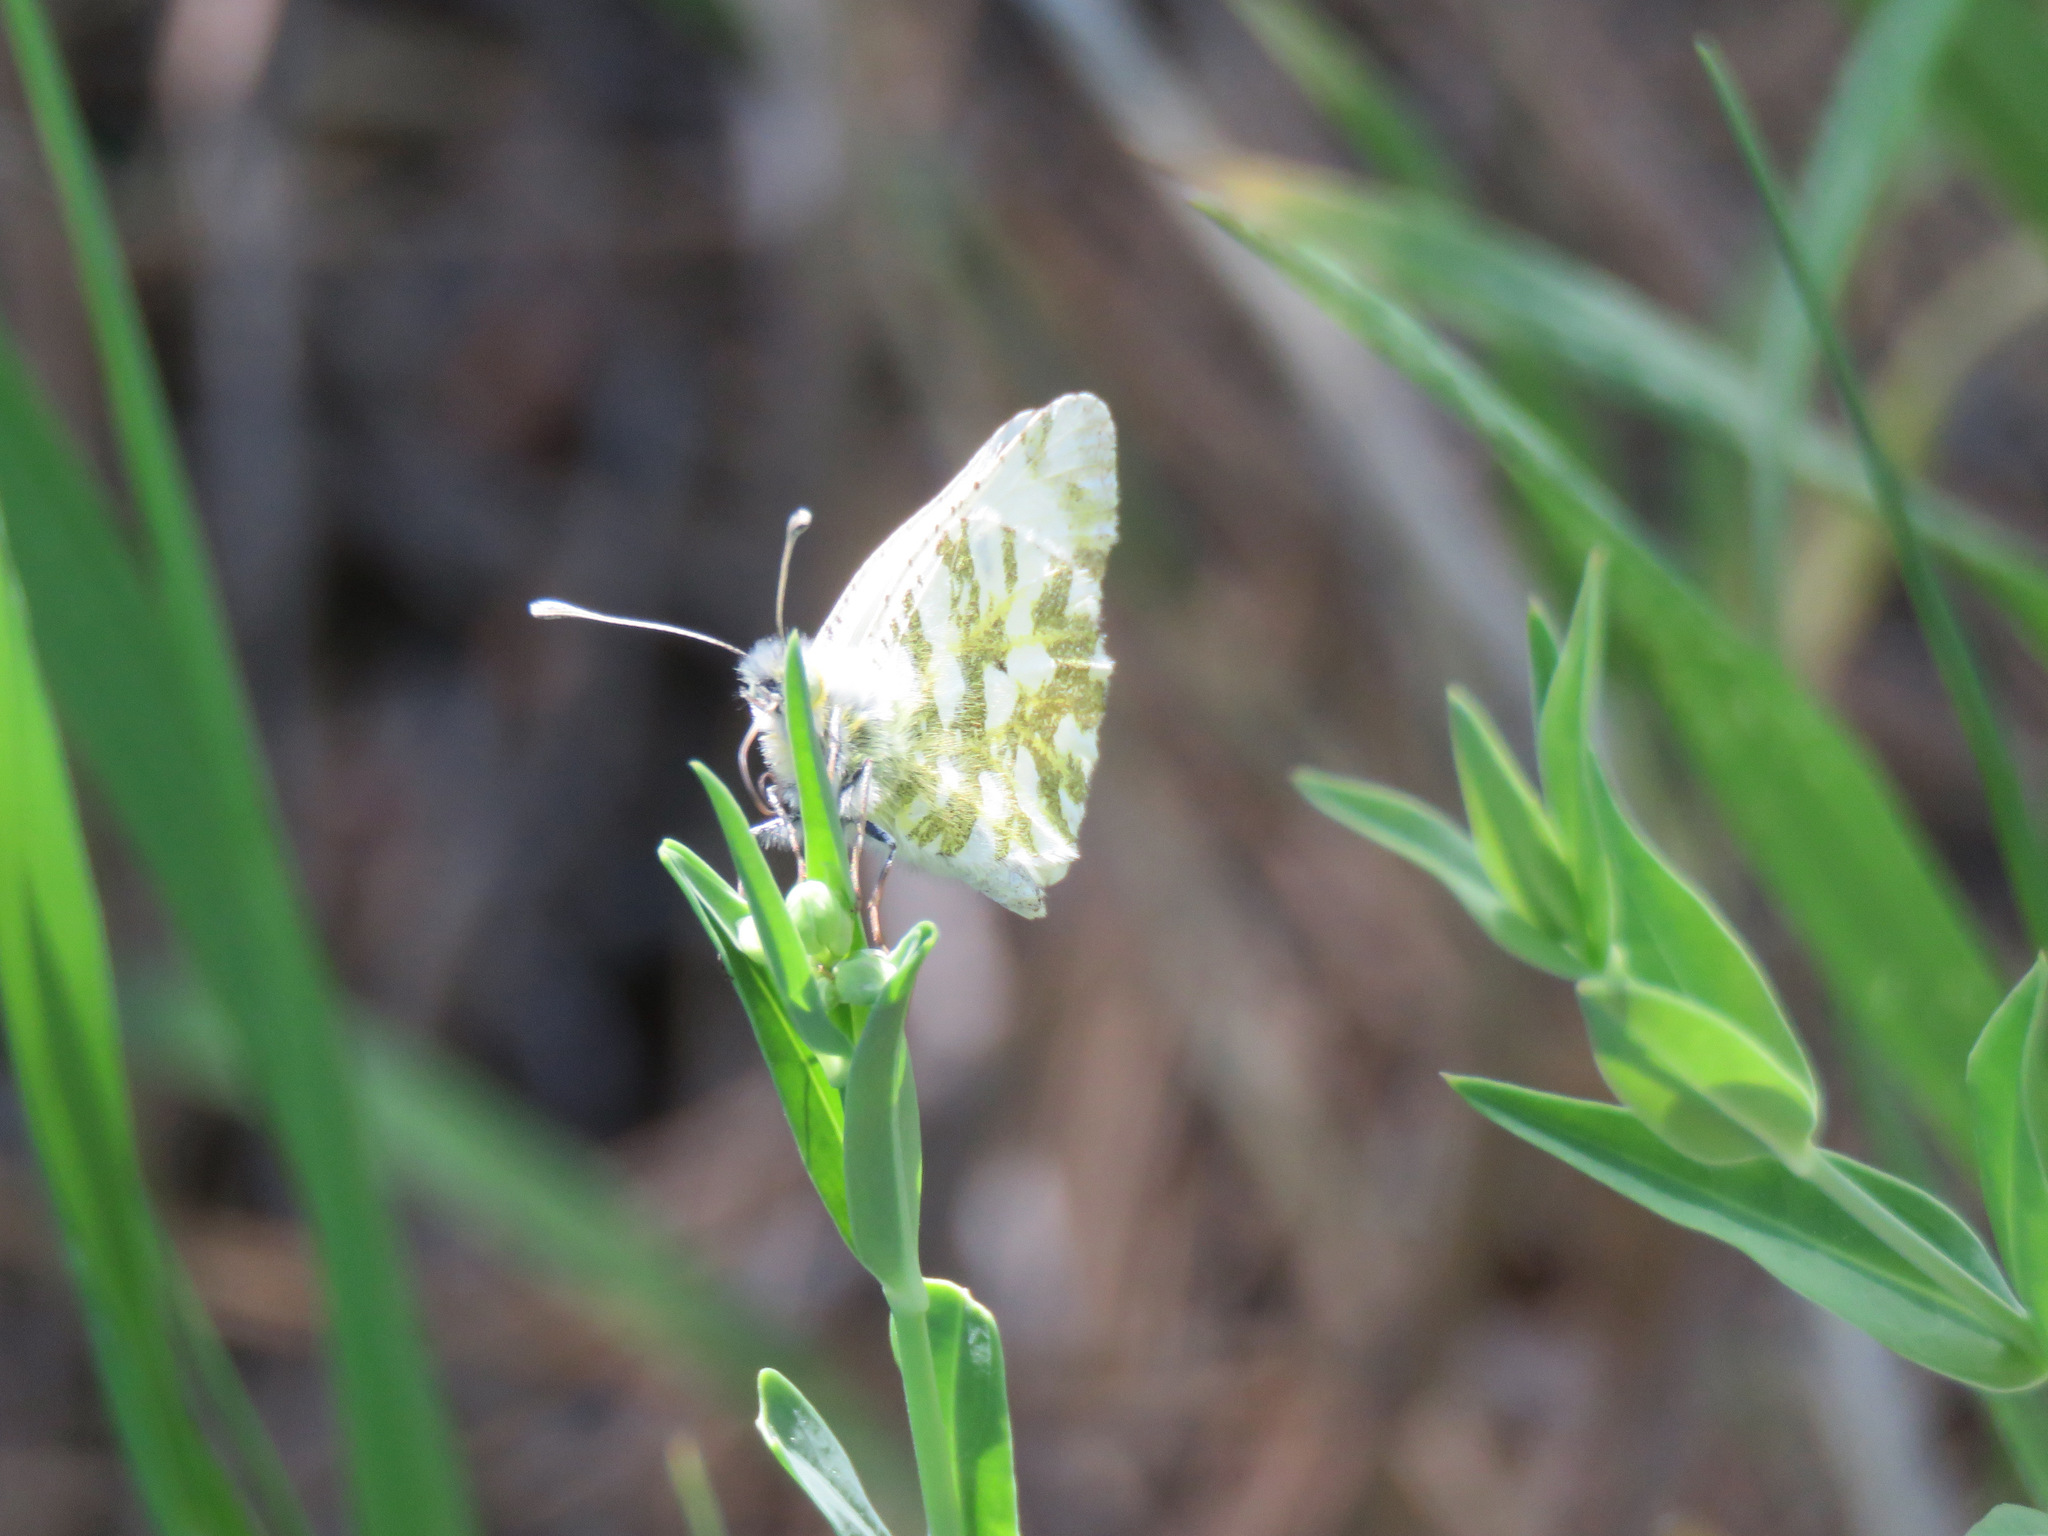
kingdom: Animalia
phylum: Arthropoda
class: Insecta
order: Lepidoptera
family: Pieridae
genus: Euchloe
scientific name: Euchloe ausonides
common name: Creamy marblewing
